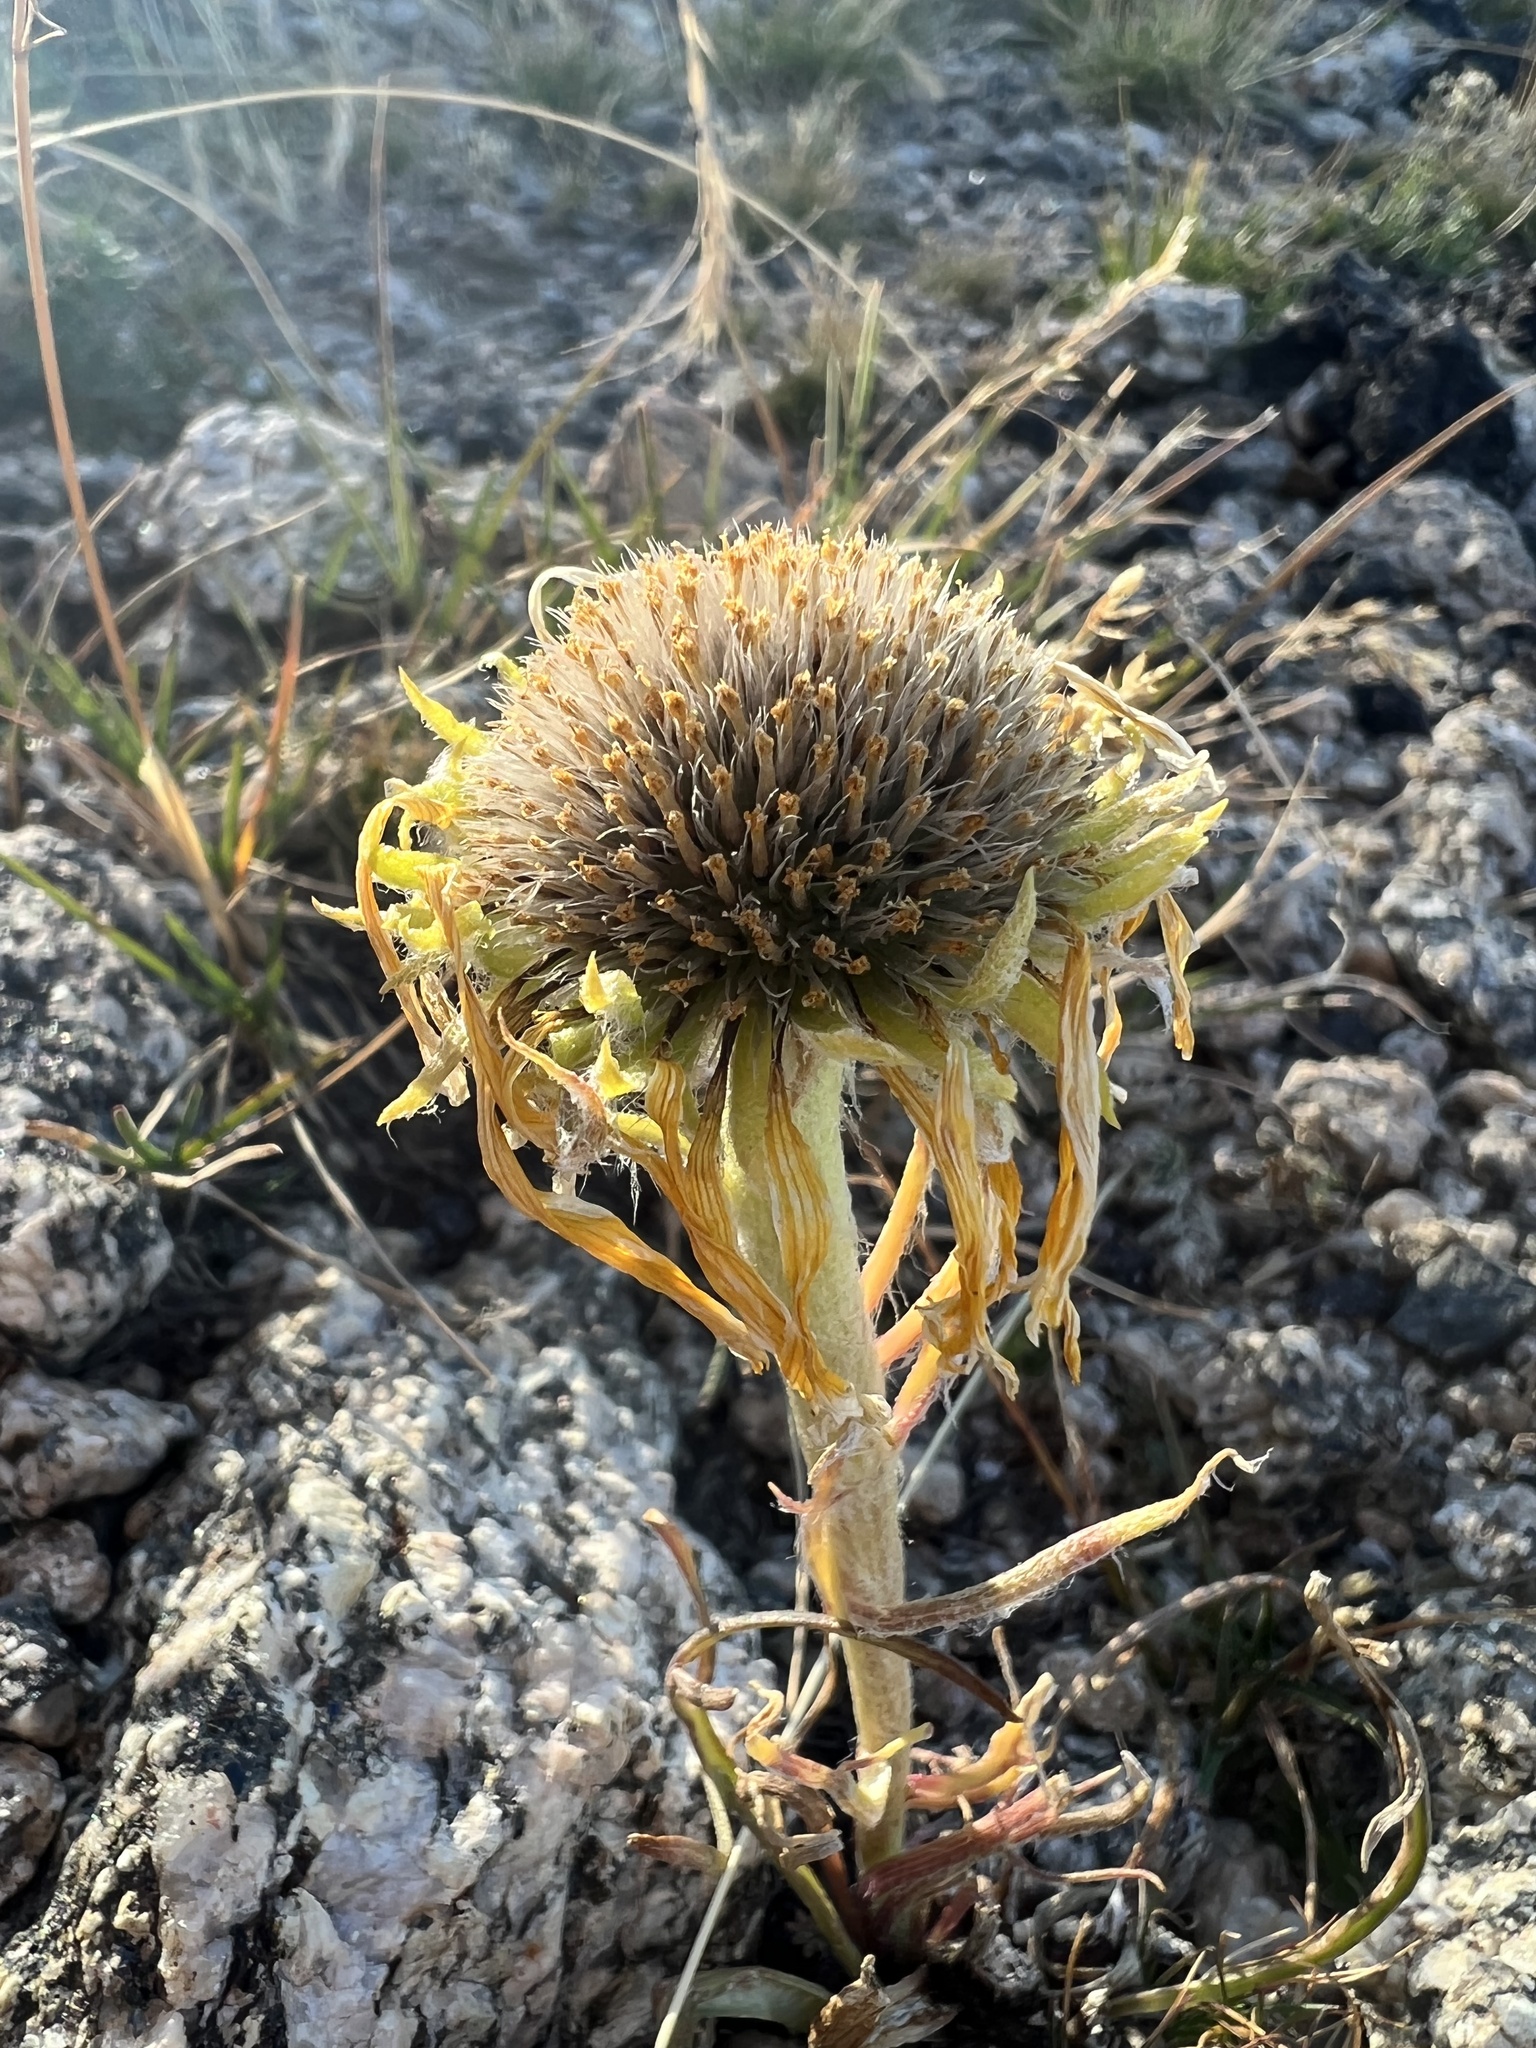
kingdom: Plantae
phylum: Tracheophyta
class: Magnoliopsida
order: Asterales
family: Asteraceae
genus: Hymenoxys
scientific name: Hymenoxys grandiflora
